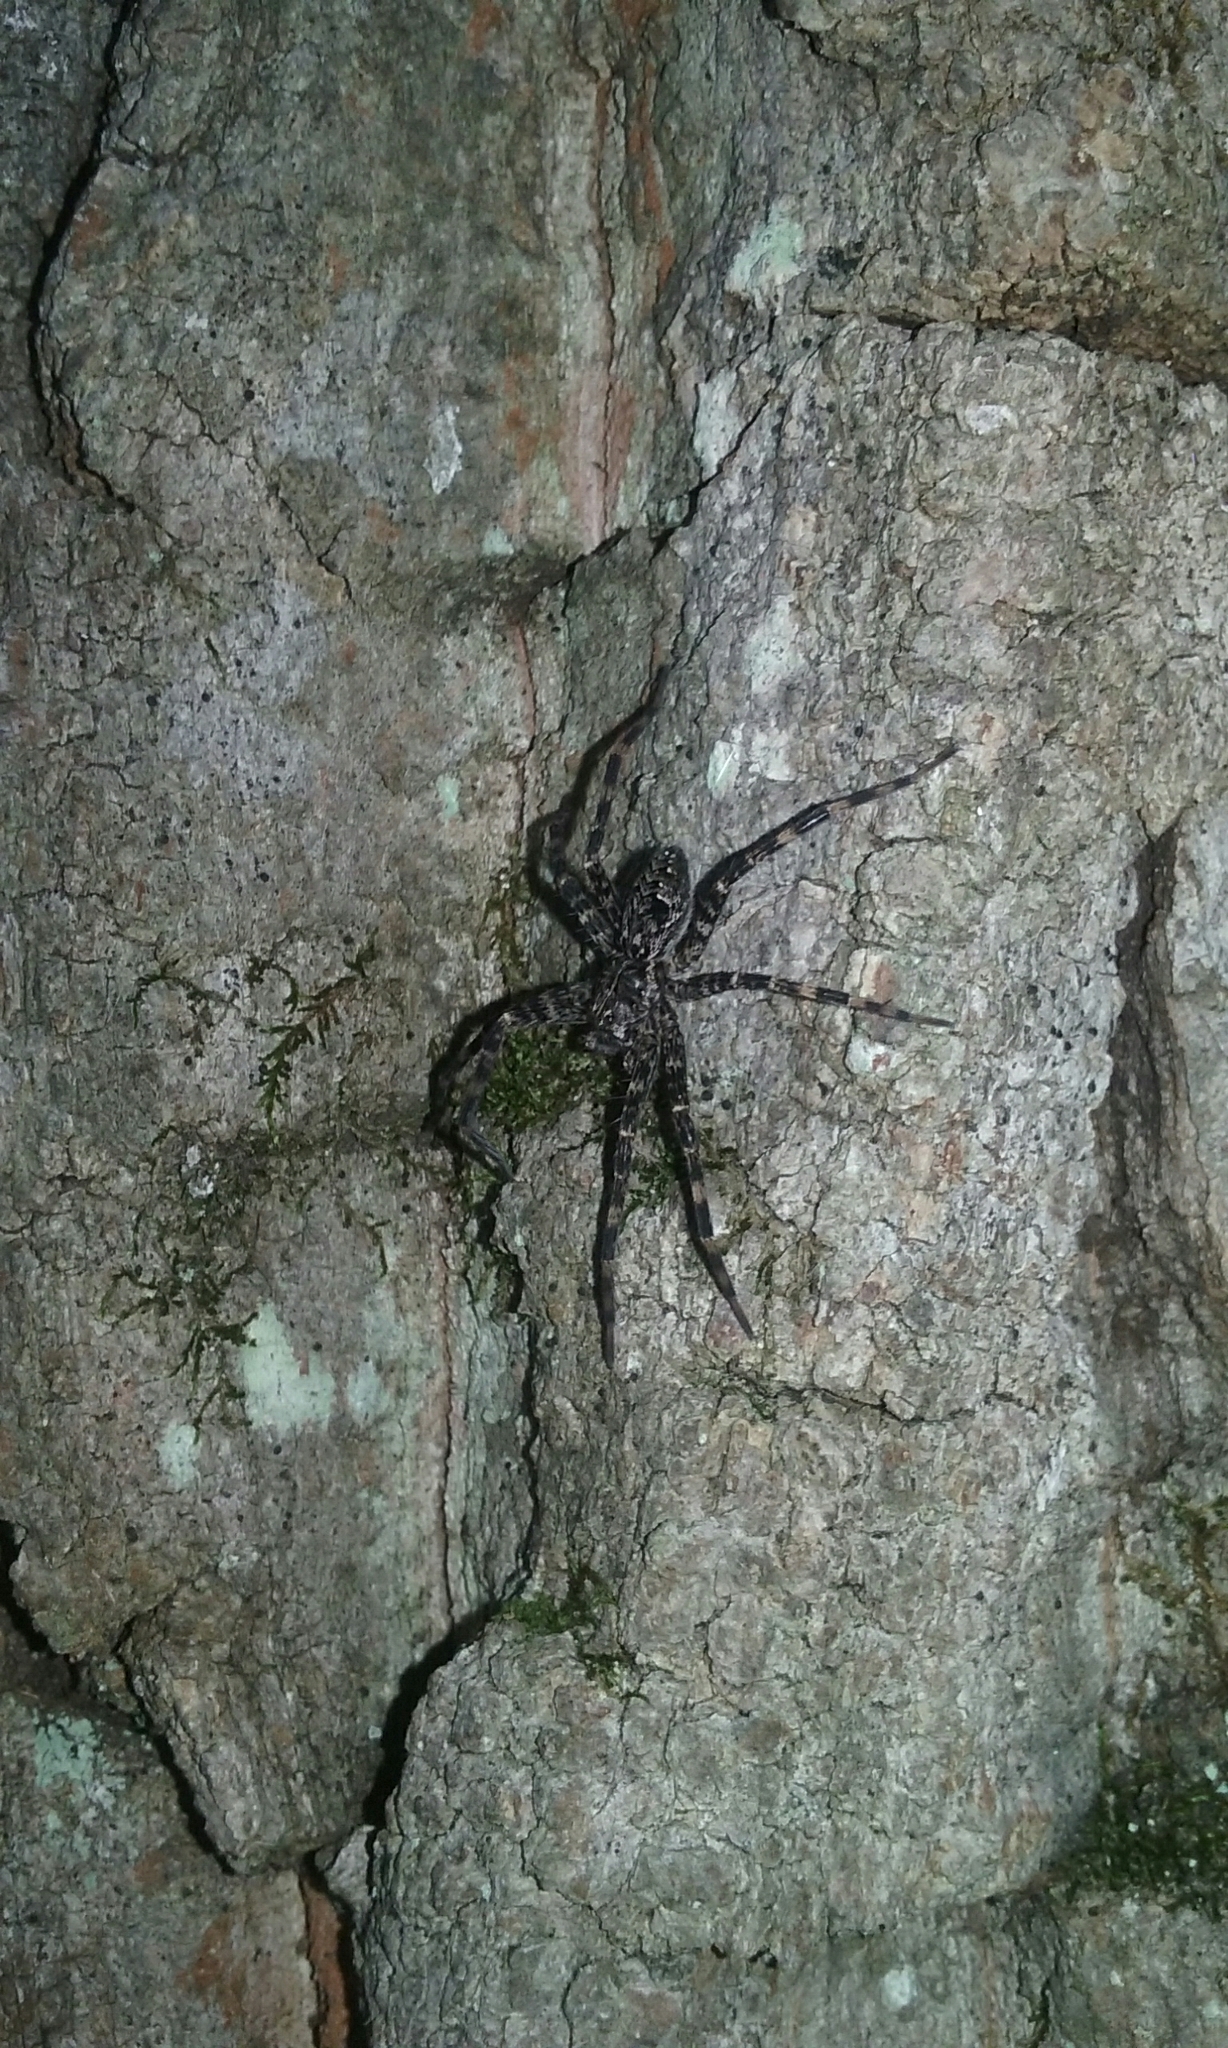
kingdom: Animalia
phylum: Arthropoda
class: Arachnida
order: Araneae
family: Pisauridae
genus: Dolomedes
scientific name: Dolomedes scriptus
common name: Striped fishing spider
